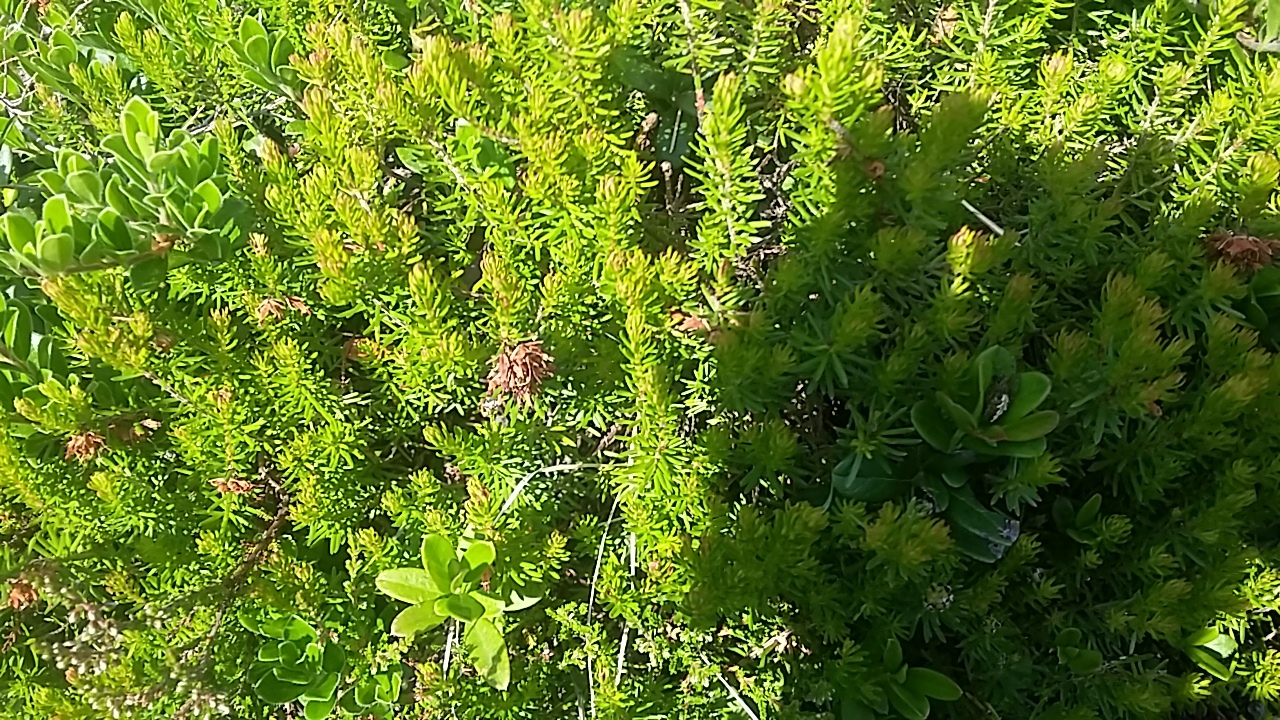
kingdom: Plantae
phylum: Tracheophyta
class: Magnoliopsida
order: Ericales
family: Ericaceae
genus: Erica
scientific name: Erica carnea
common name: Winter heath
